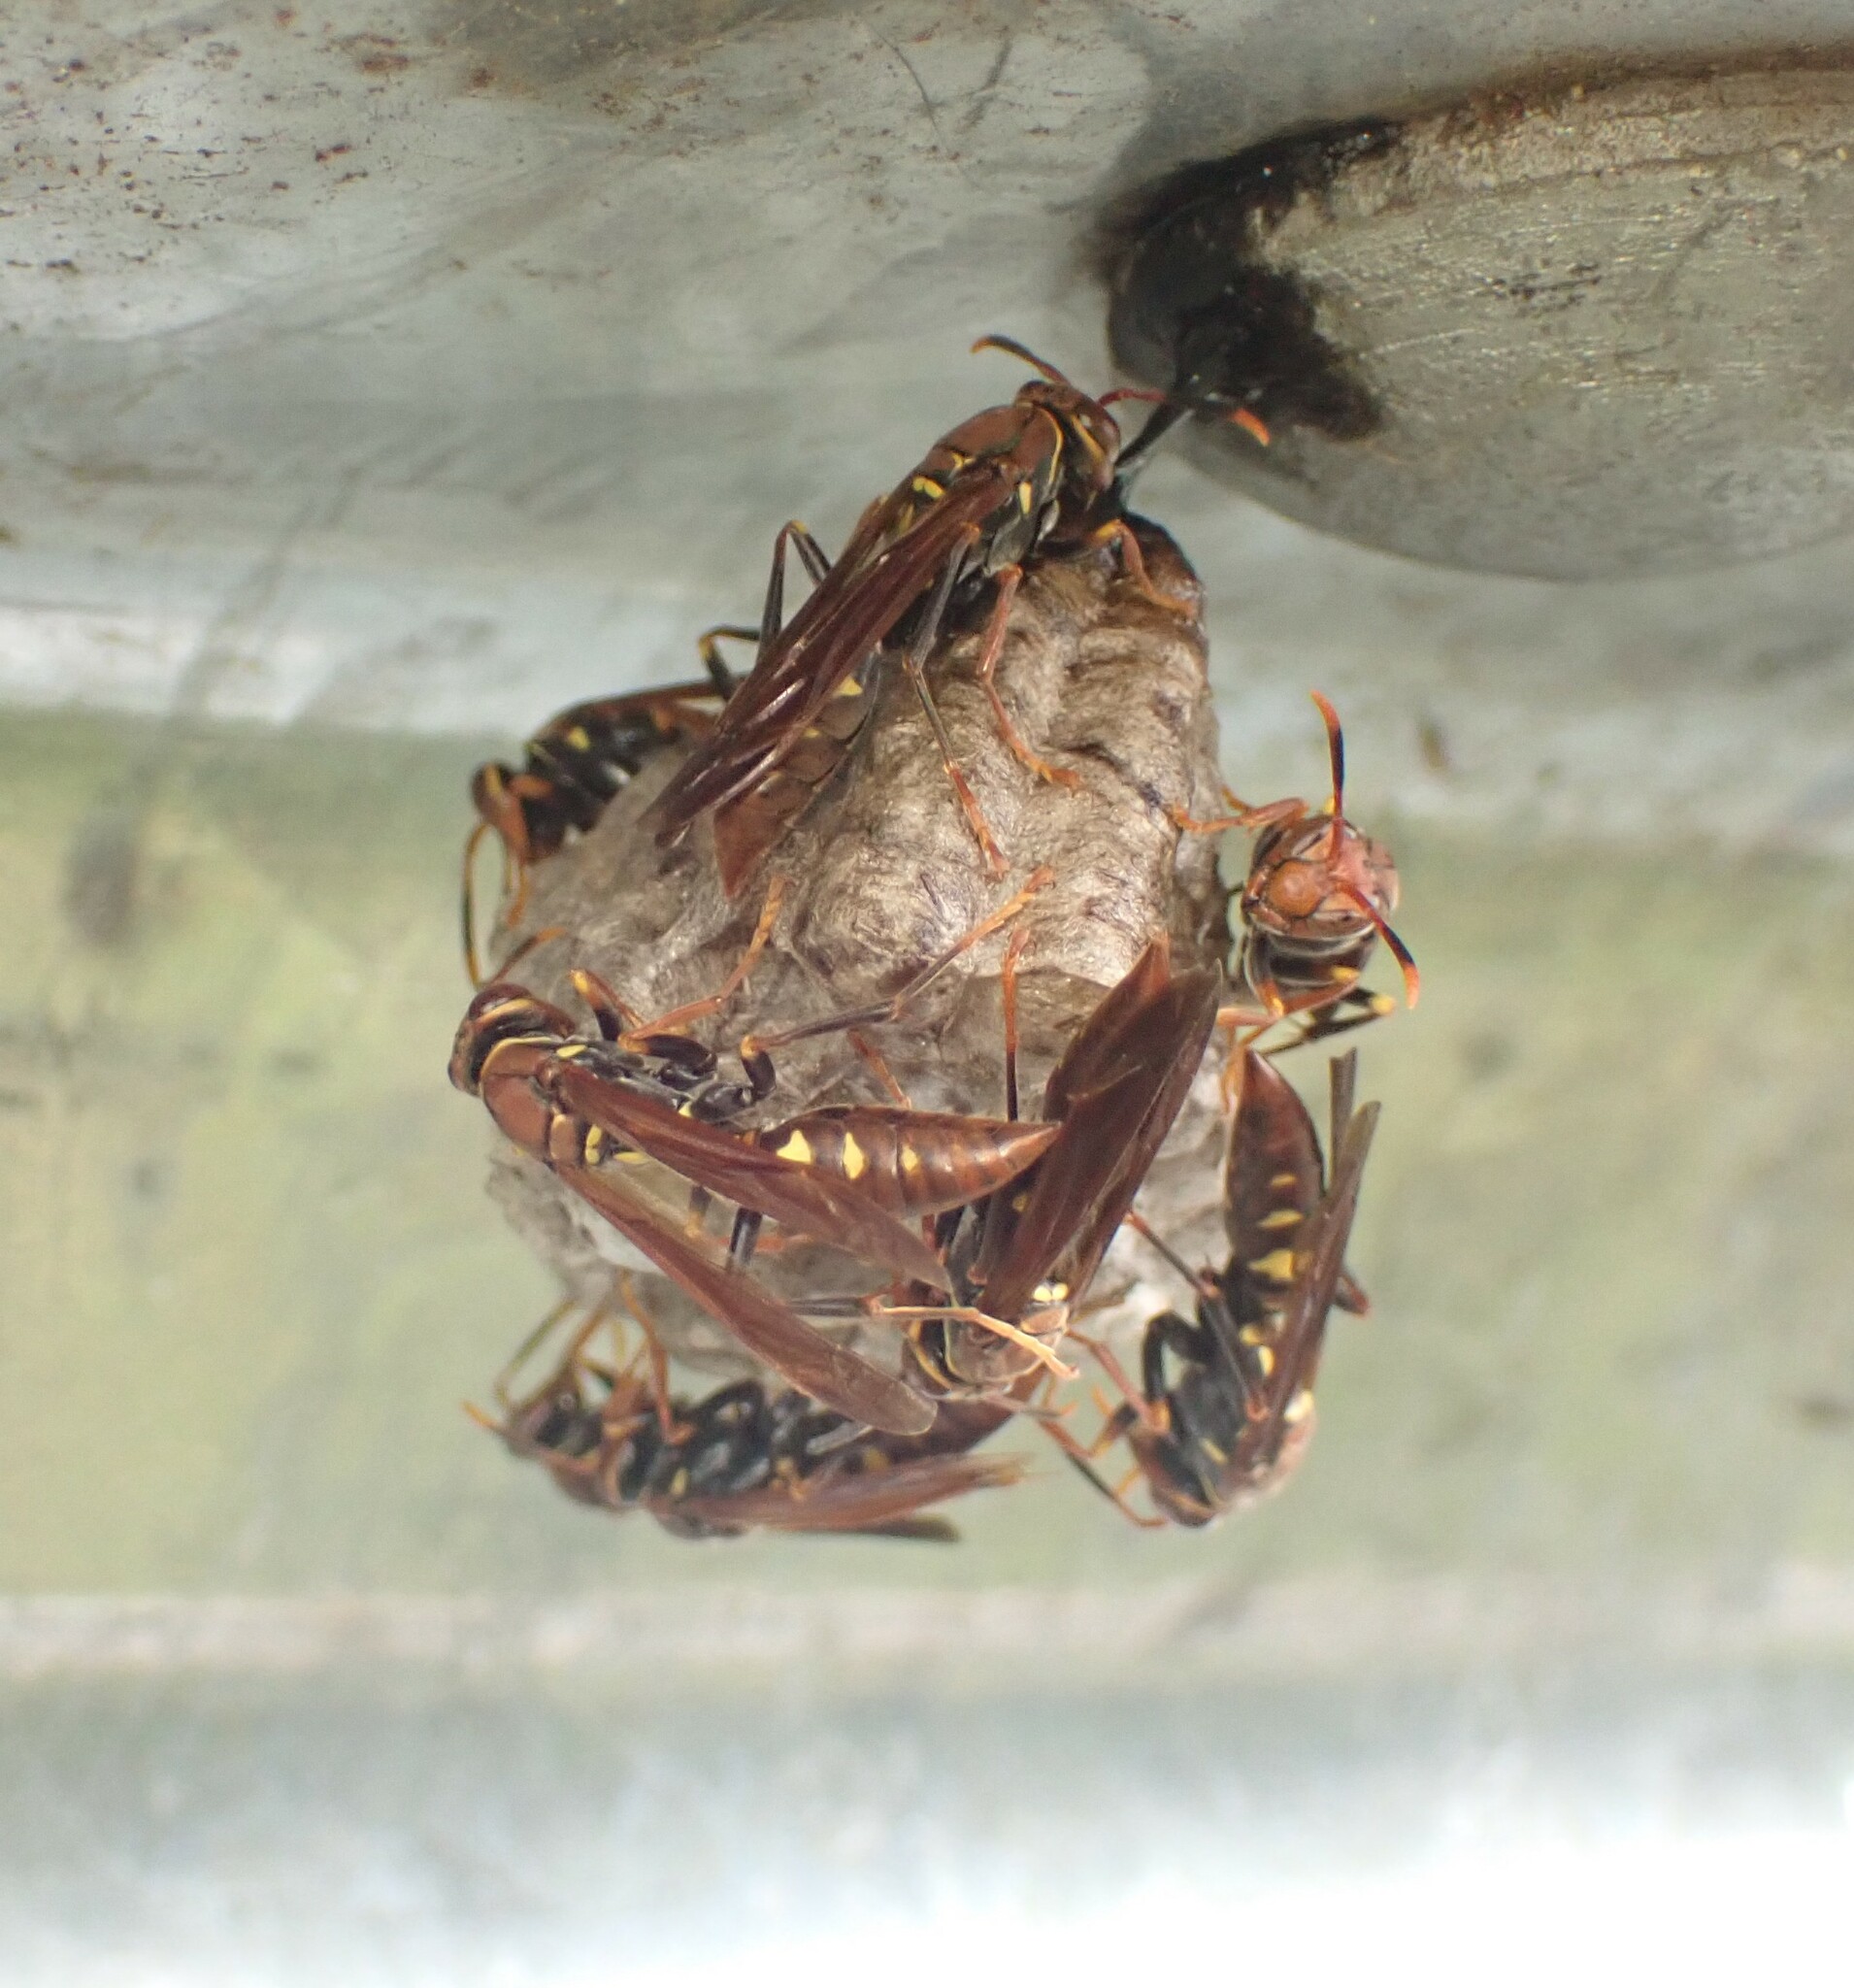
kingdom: Animalia
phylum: Arthropoda
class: Insecta
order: Hymenoptera
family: Eumenidae
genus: Polistes
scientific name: Polistes versicolor
